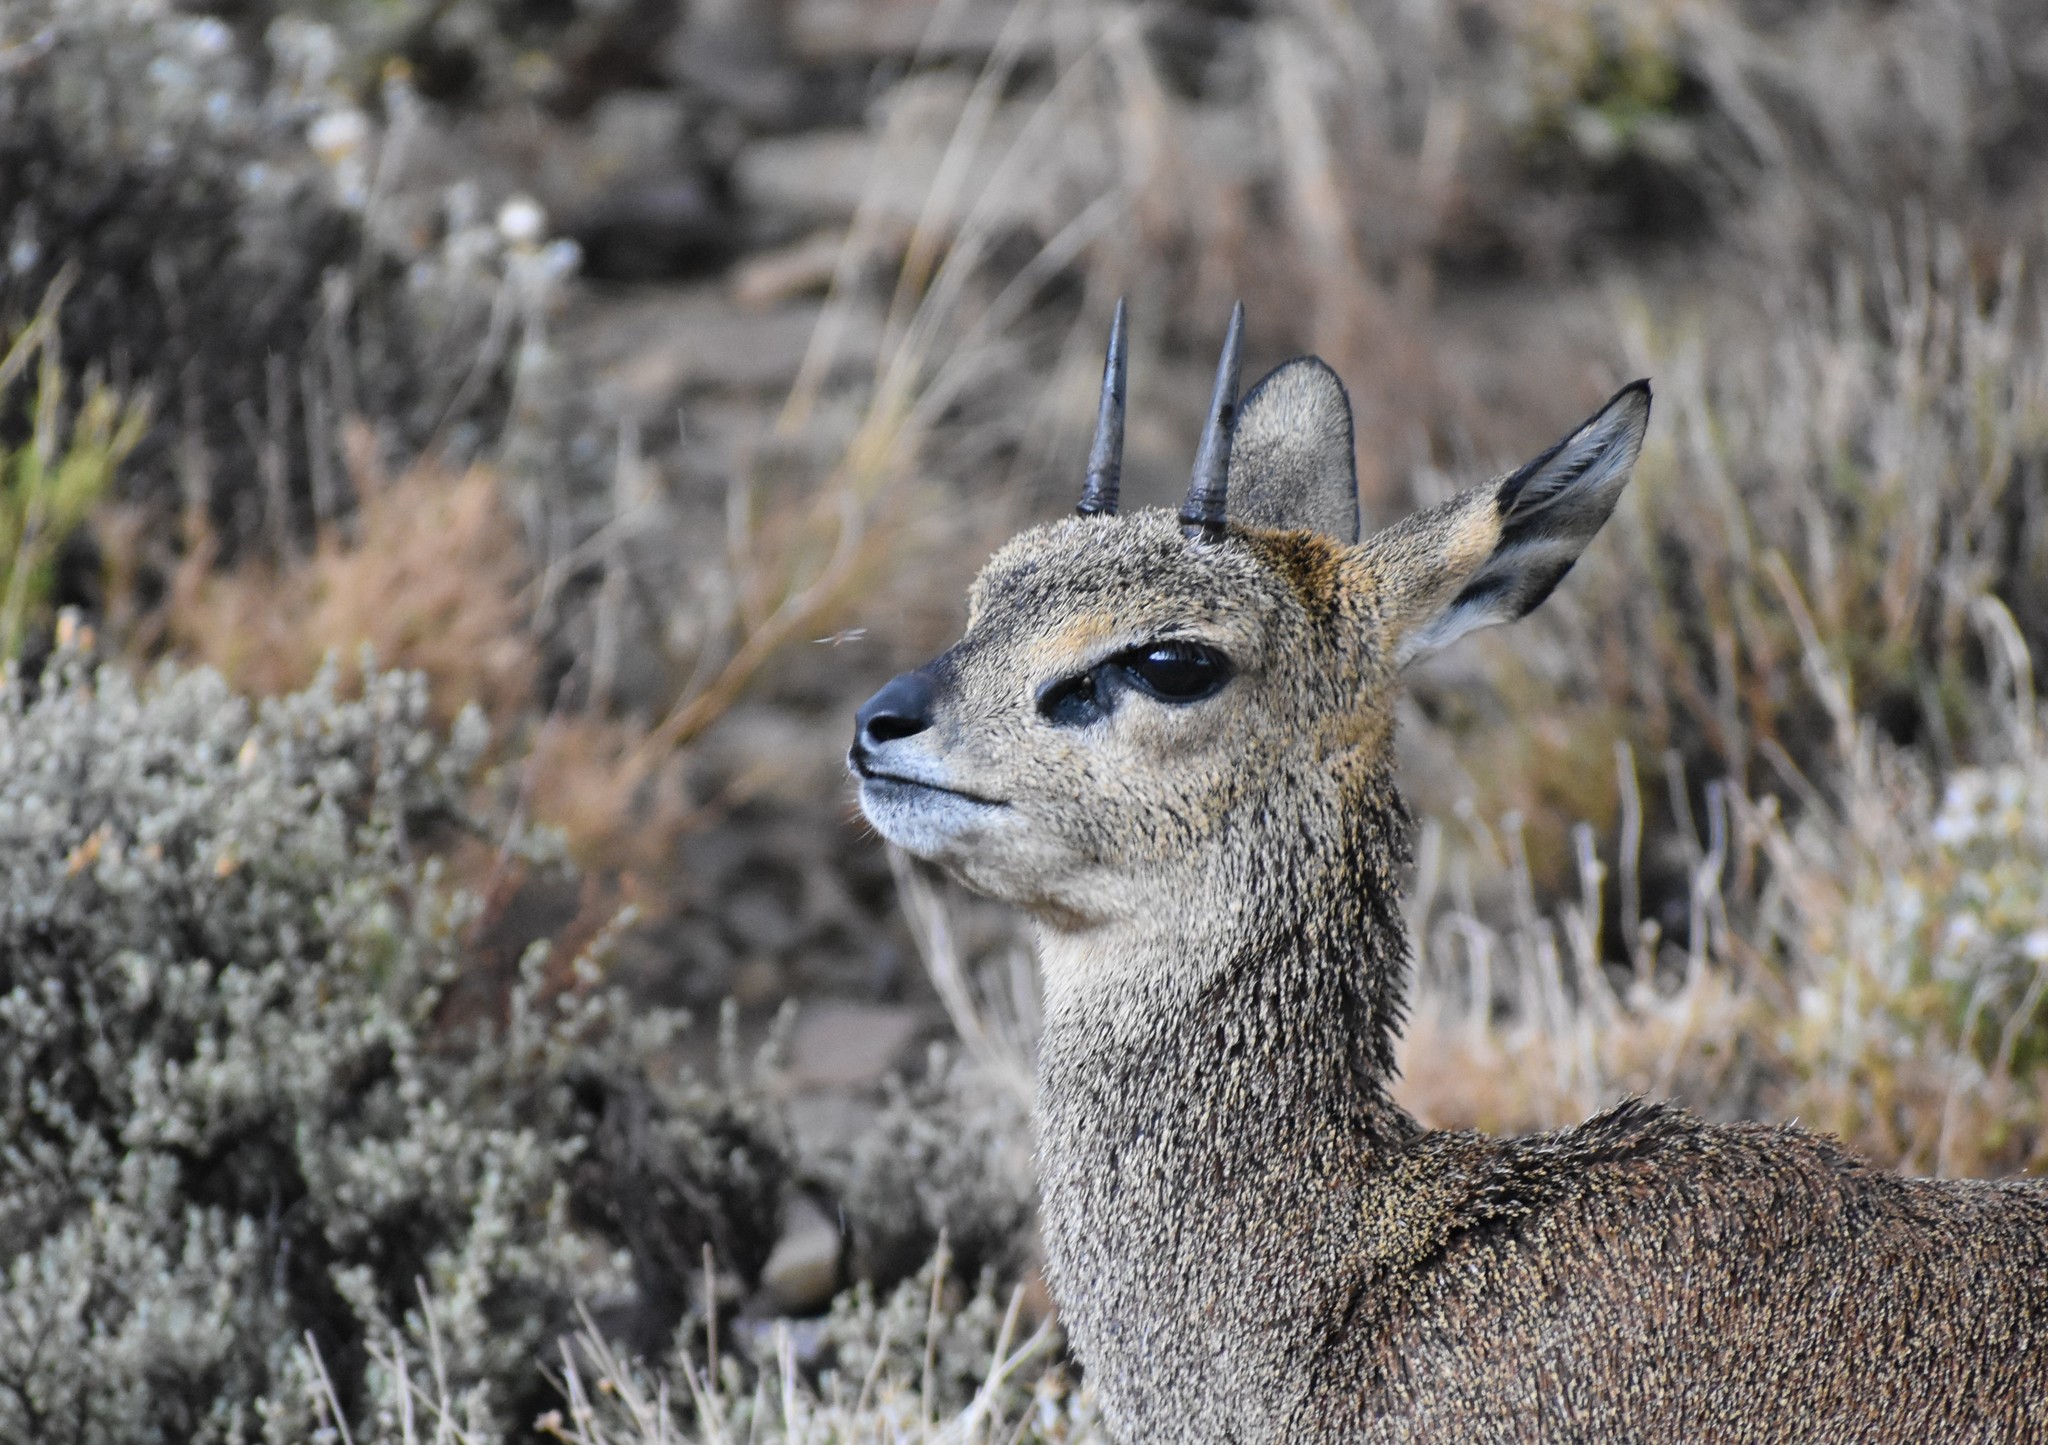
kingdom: Animalia
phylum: Chordata
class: Mammalia
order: Artiodactyla
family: Bovidae
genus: Oreotragus
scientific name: Oreotragus oreotragus
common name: Klipspringer
